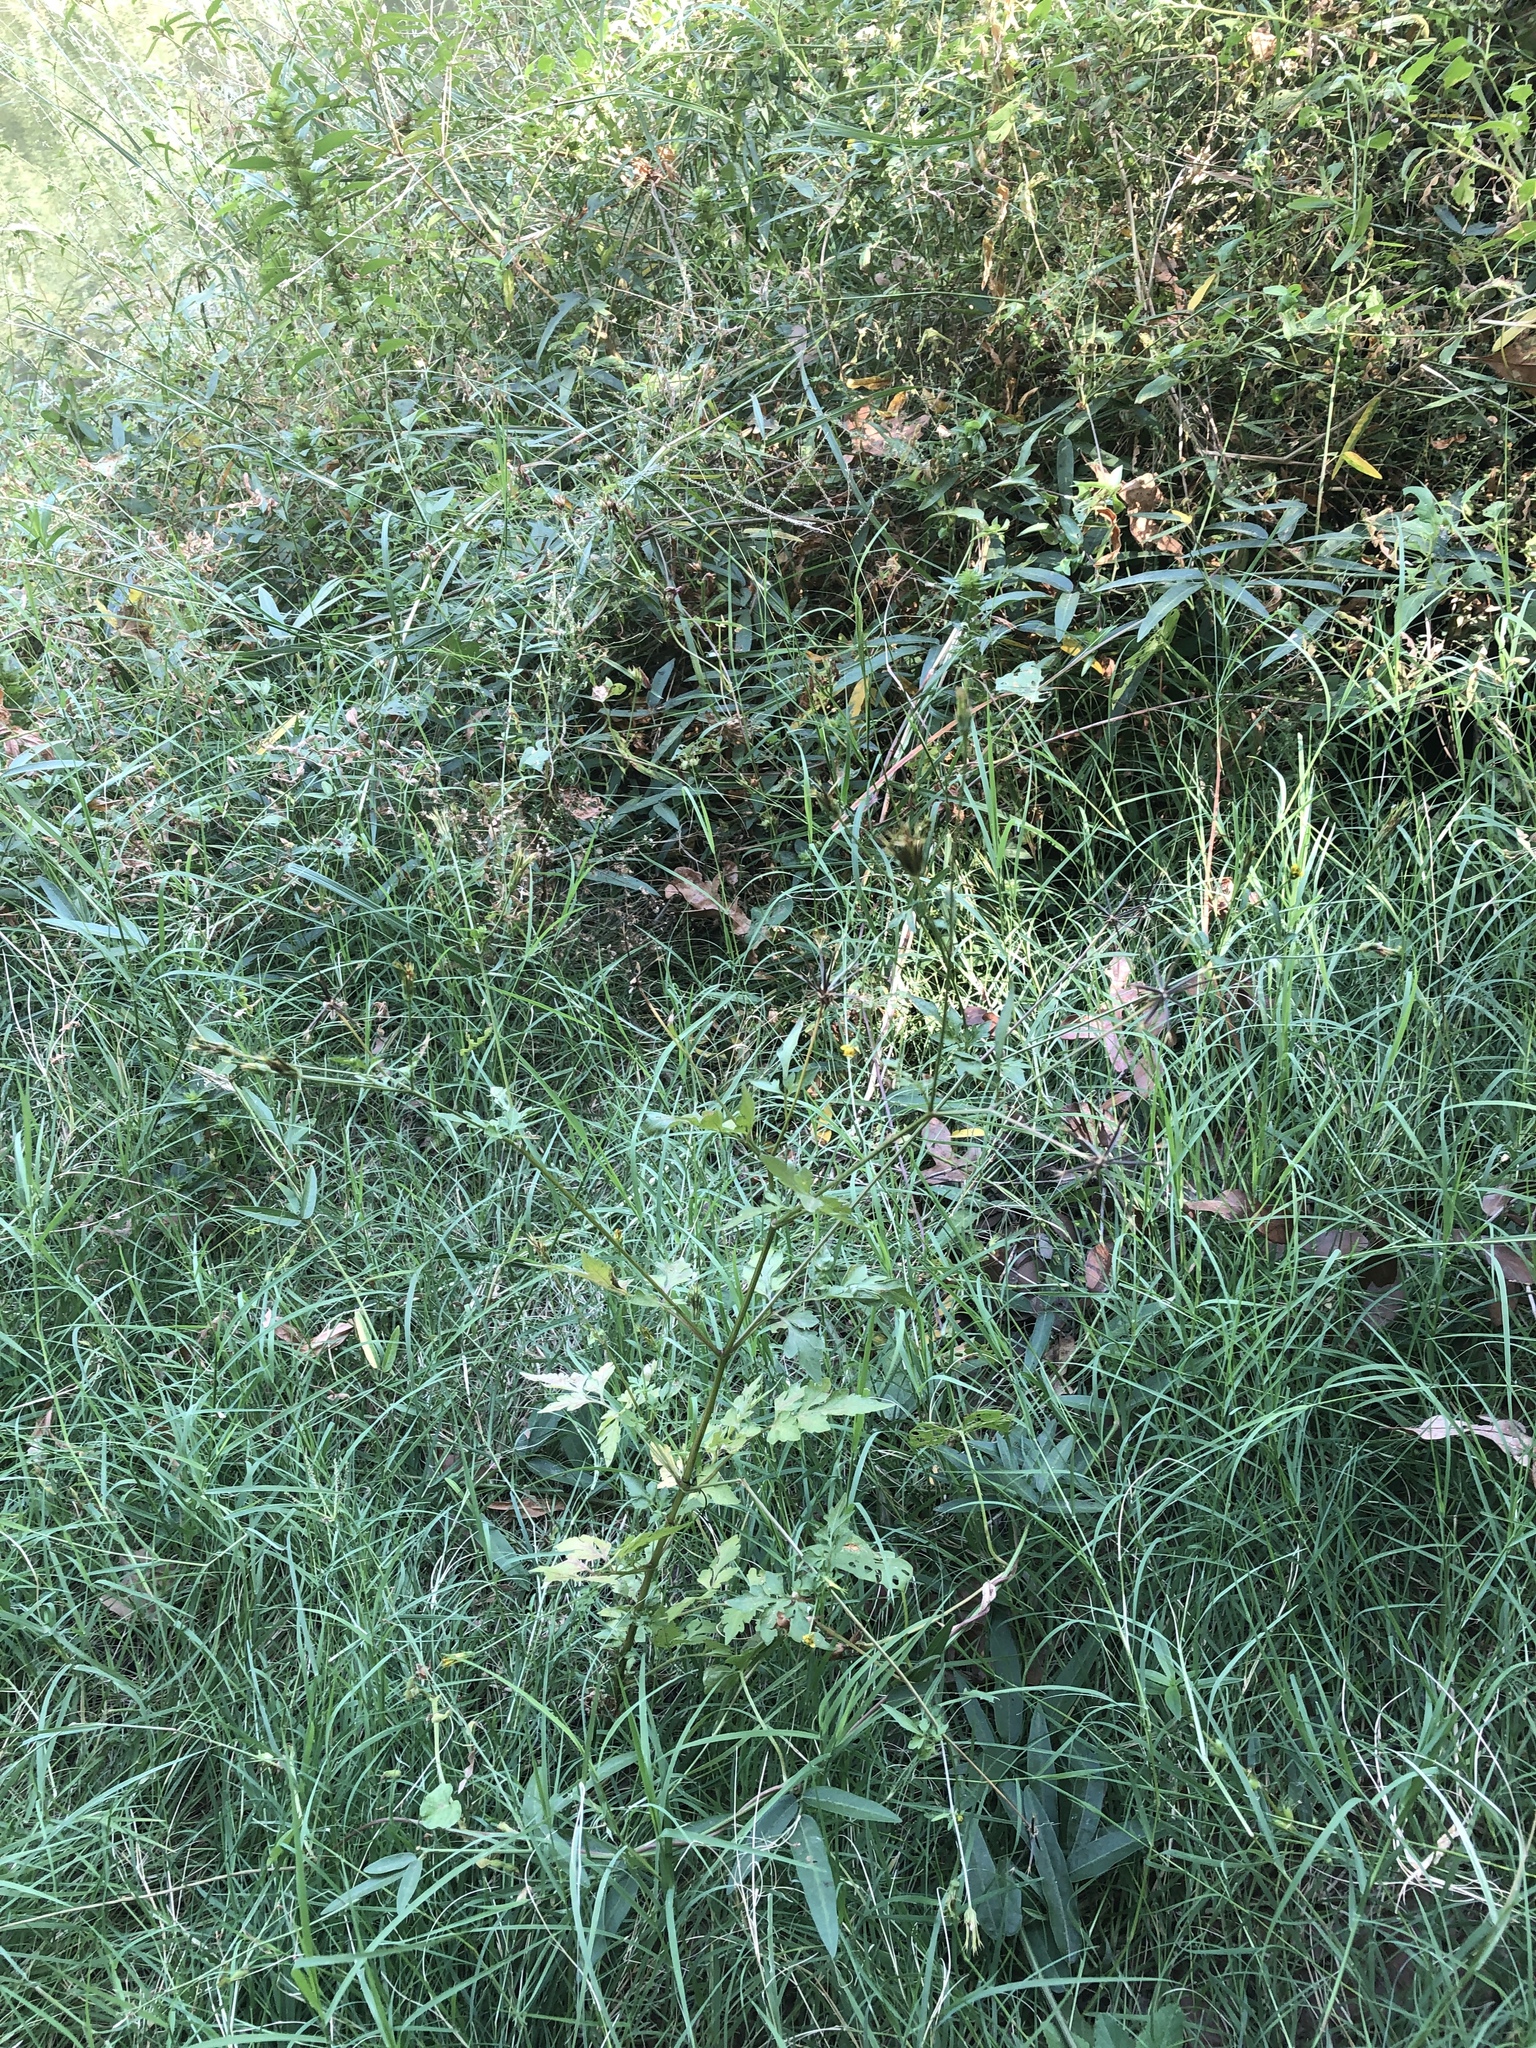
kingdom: Plantae
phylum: Tracheophyta
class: Magnoliopsida
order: Asterales
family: Asteraceae
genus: Bidens
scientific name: Bidens bipinnata
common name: Spanish-needles
